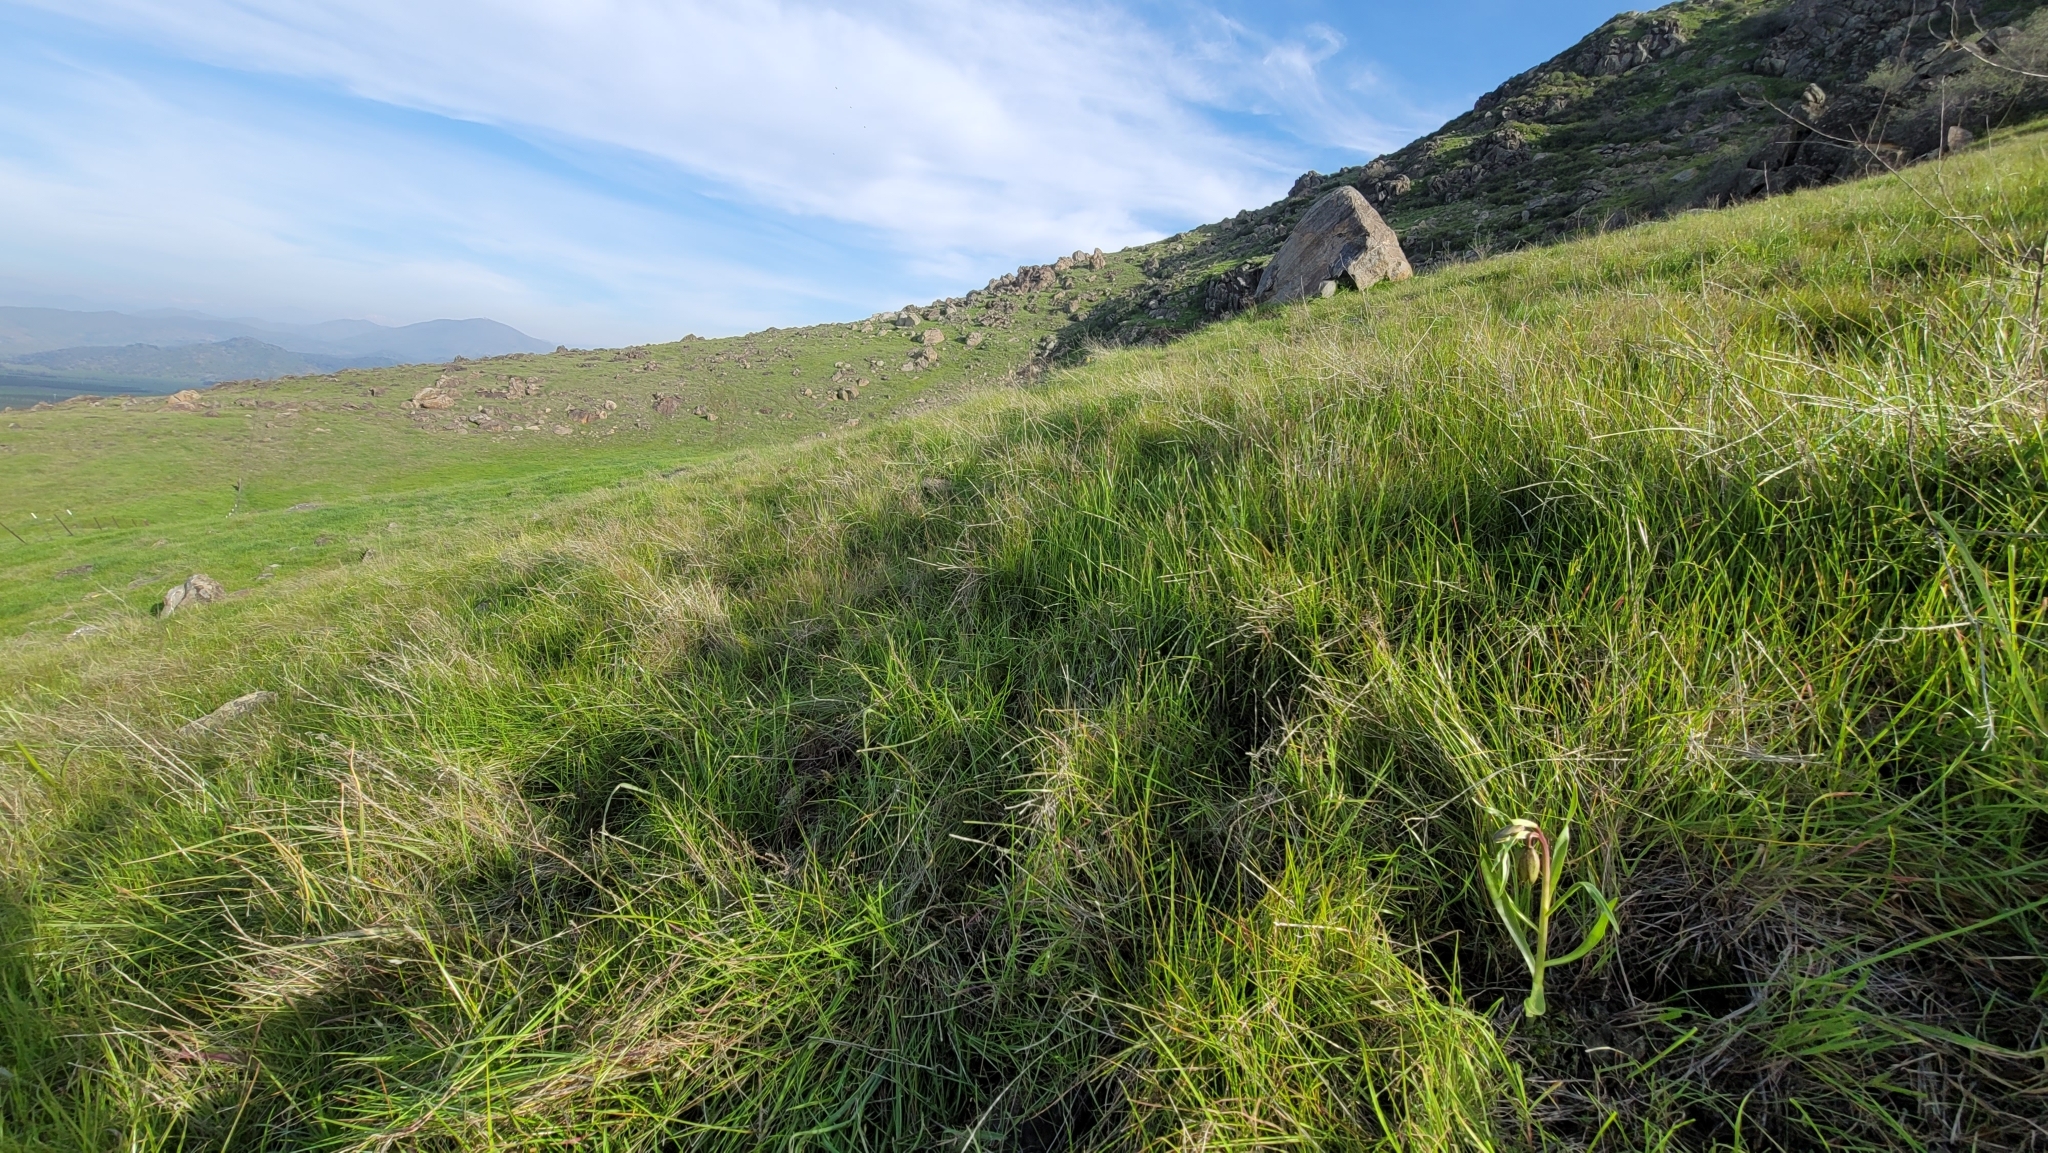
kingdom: Plantae
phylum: Tracheophyta
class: Liliopsida
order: Liliales
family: Liliaceae
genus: Fritillaria
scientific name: Fritillaria agrestis
